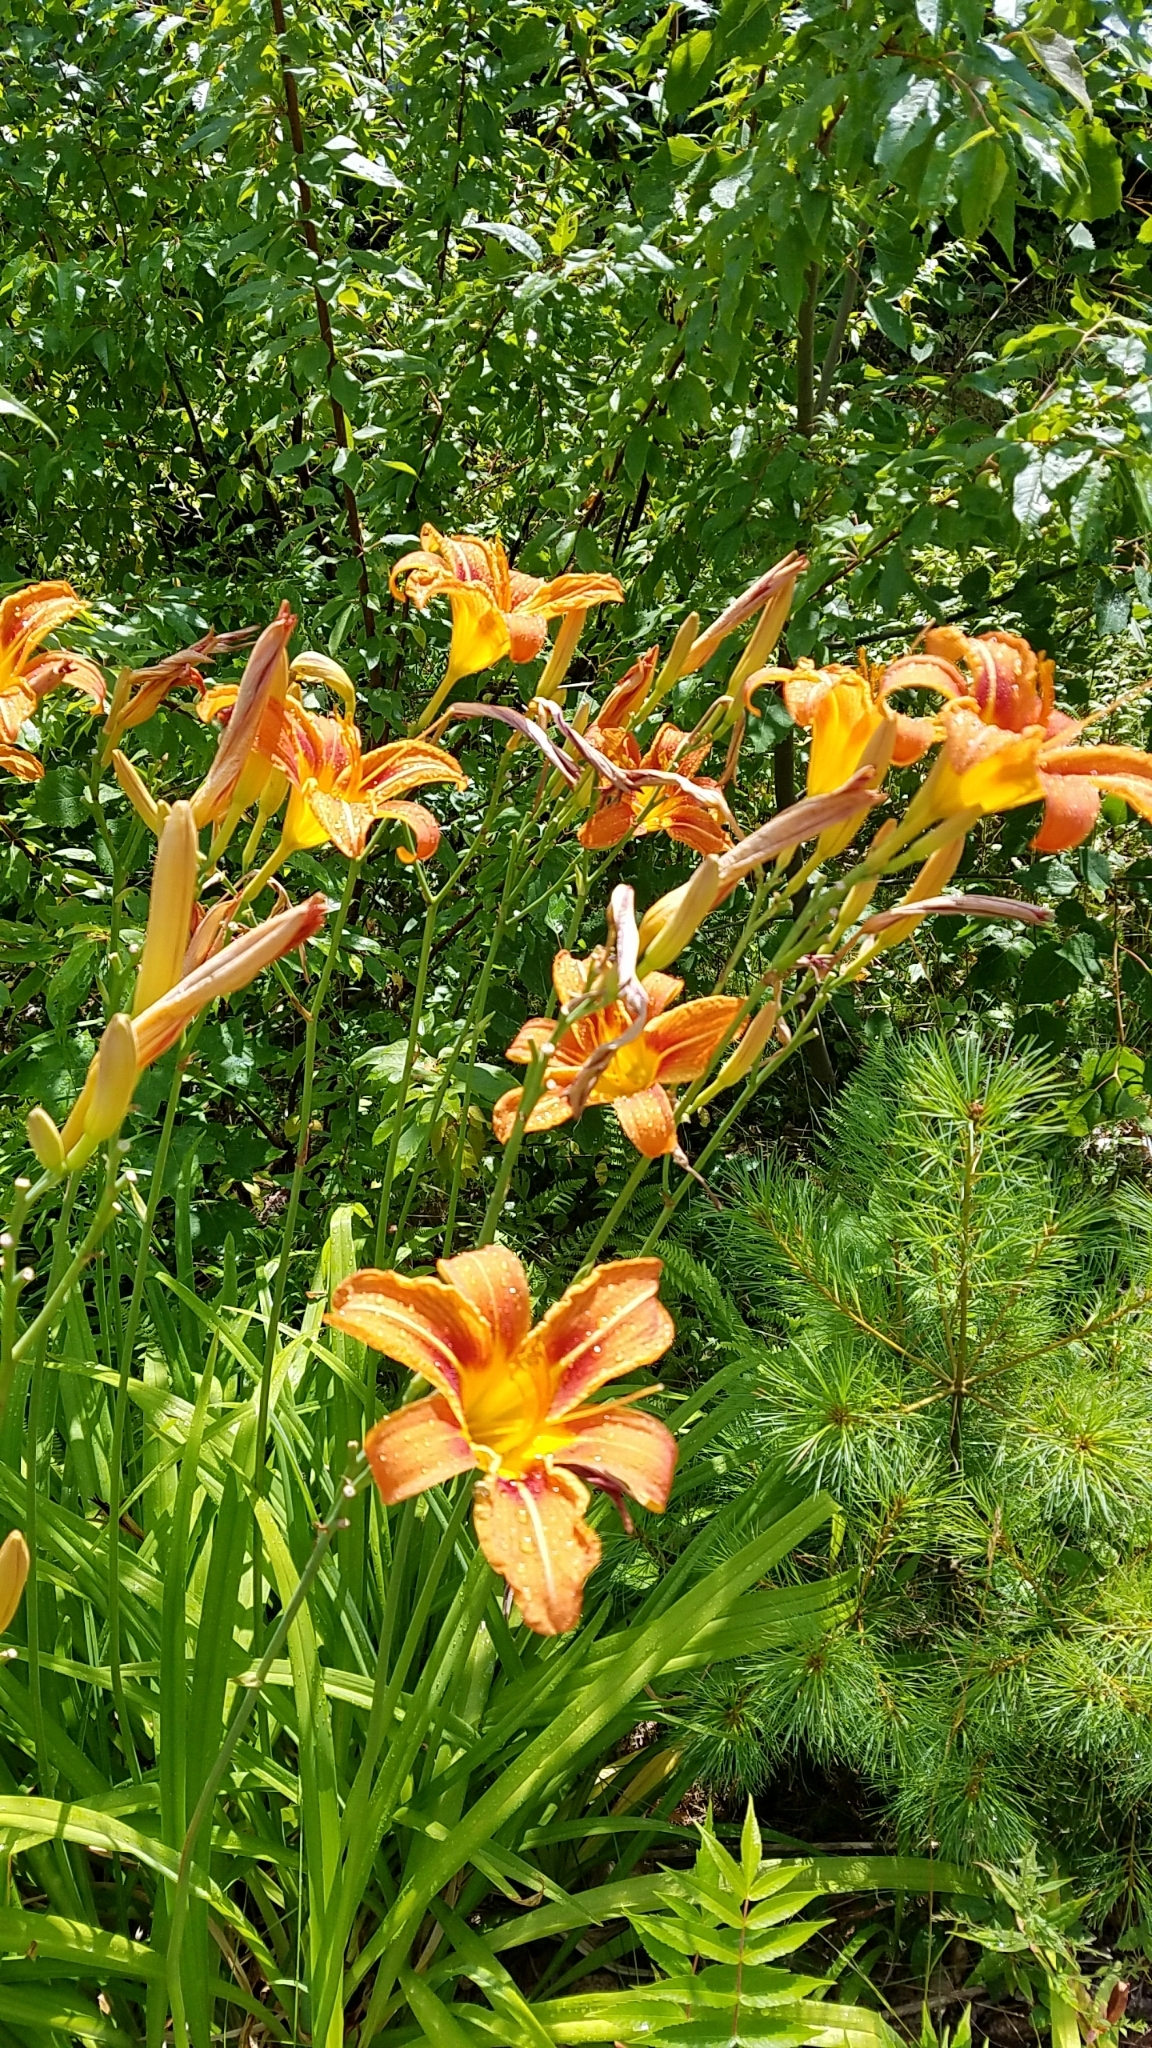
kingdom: Plantae
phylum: Tracheophyta
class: Liliopsida
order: Asparagales
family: Asphodelaceae
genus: Hemerocallis
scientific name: Hemerocallis fulva
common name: Orange day-lily
